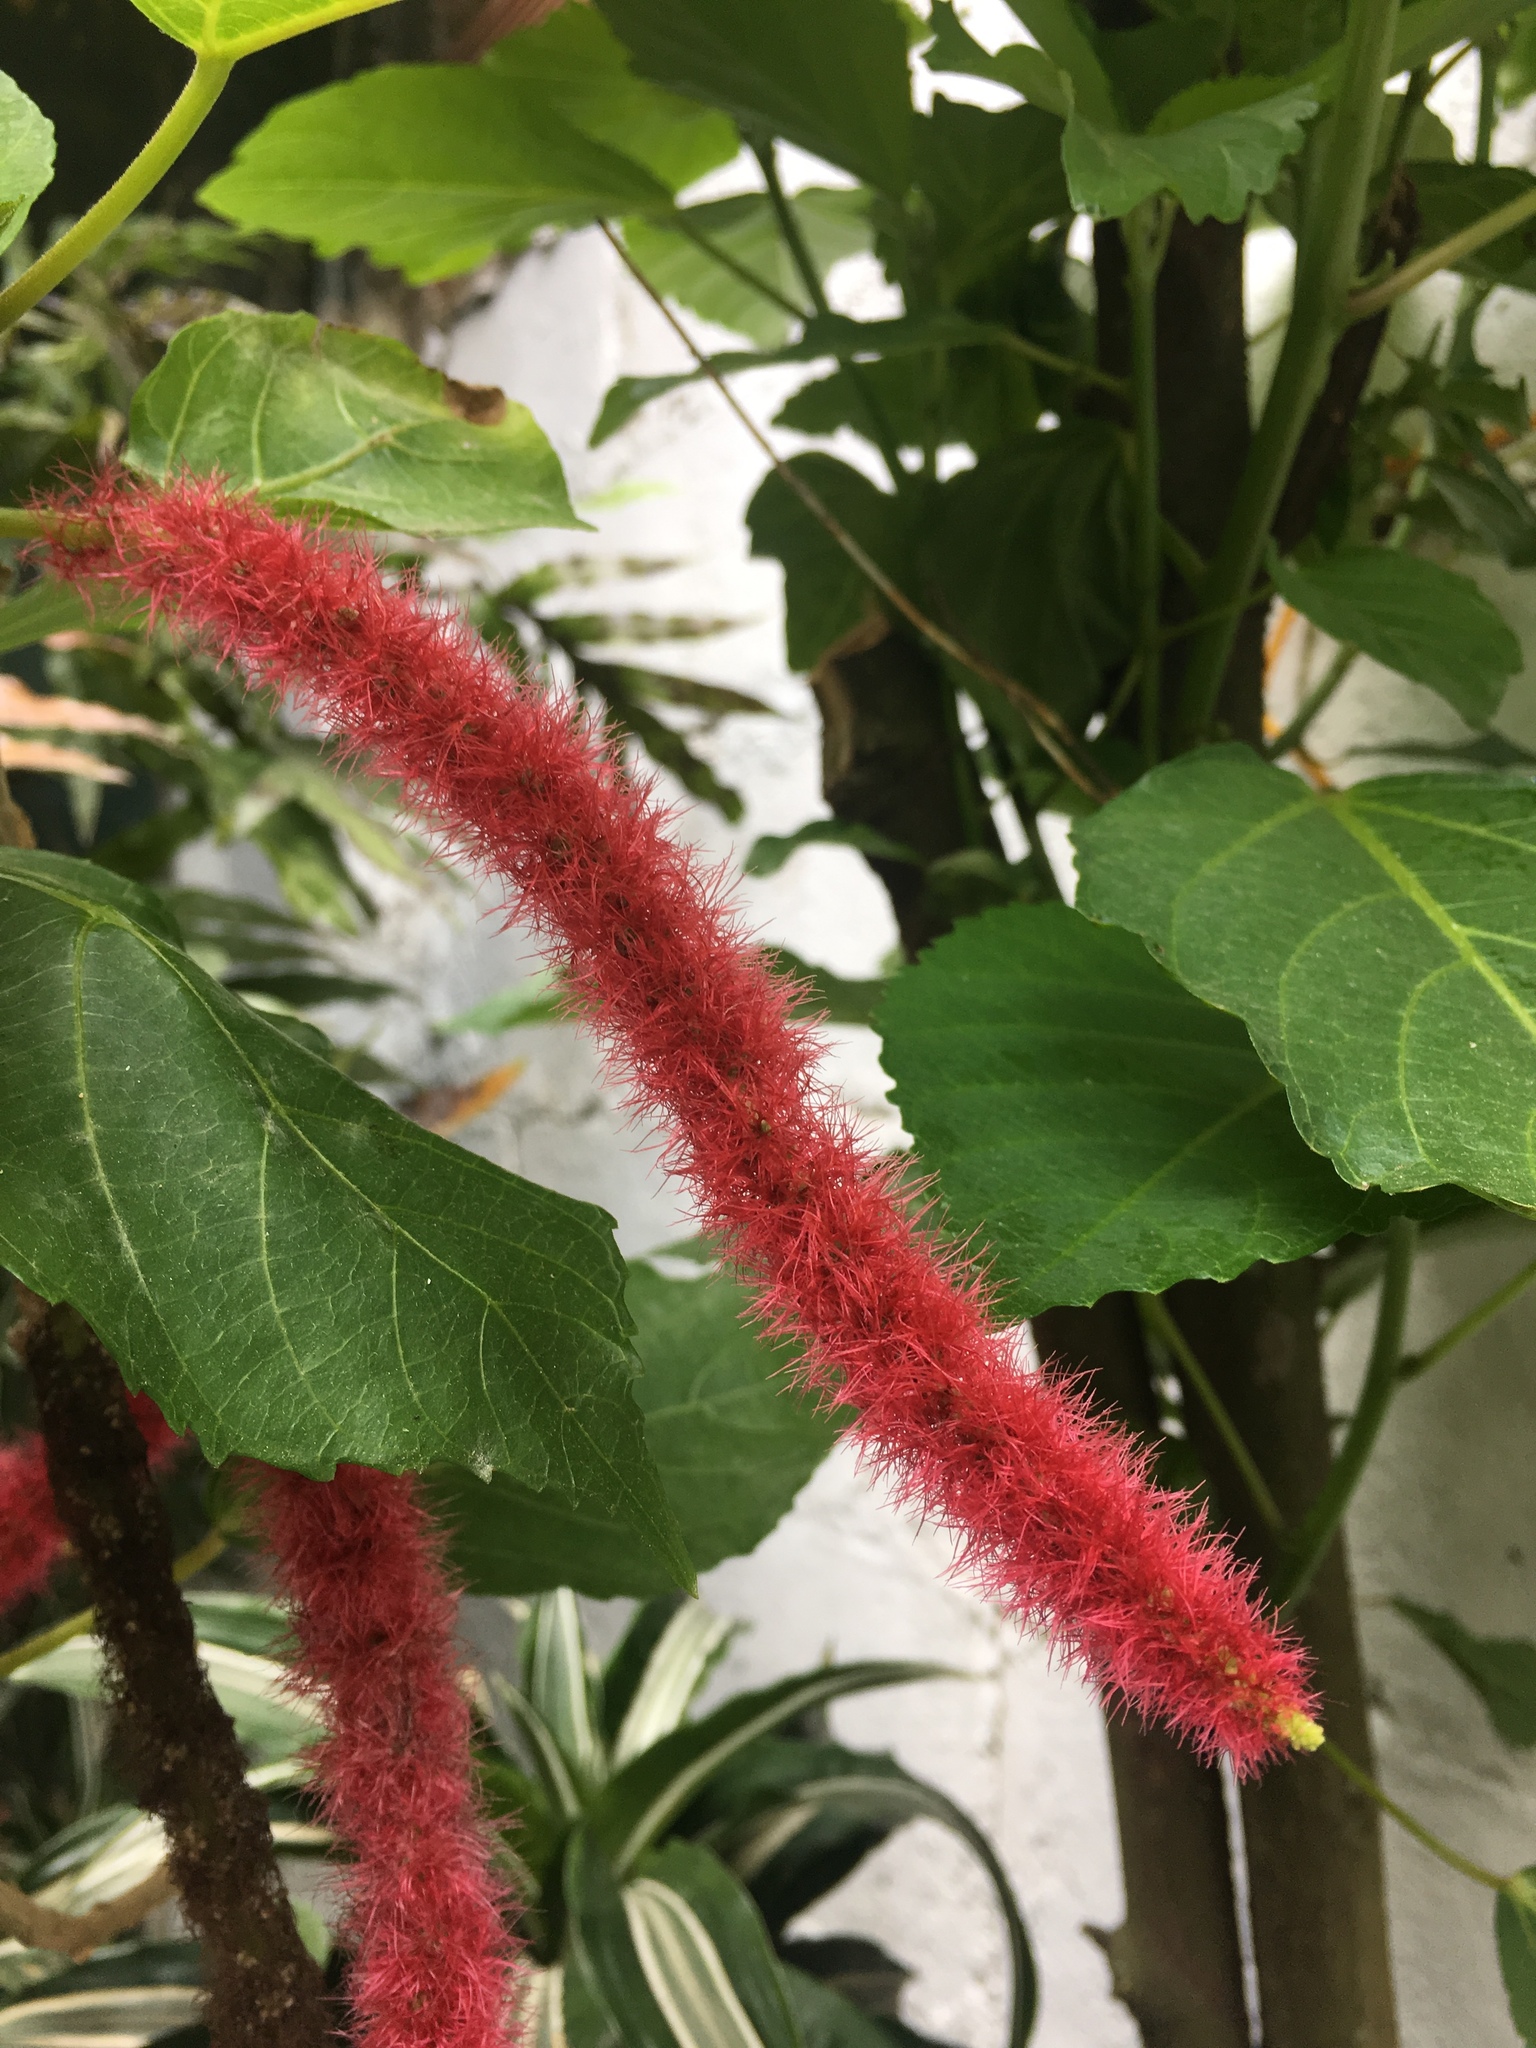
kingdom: Plantae
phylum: Tracheophyta
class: Magnoliopsida
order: Malpighiales
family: Euphorbiaceae
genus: Acalypha
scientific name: Acalypha hispida
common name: Chenilleplant
